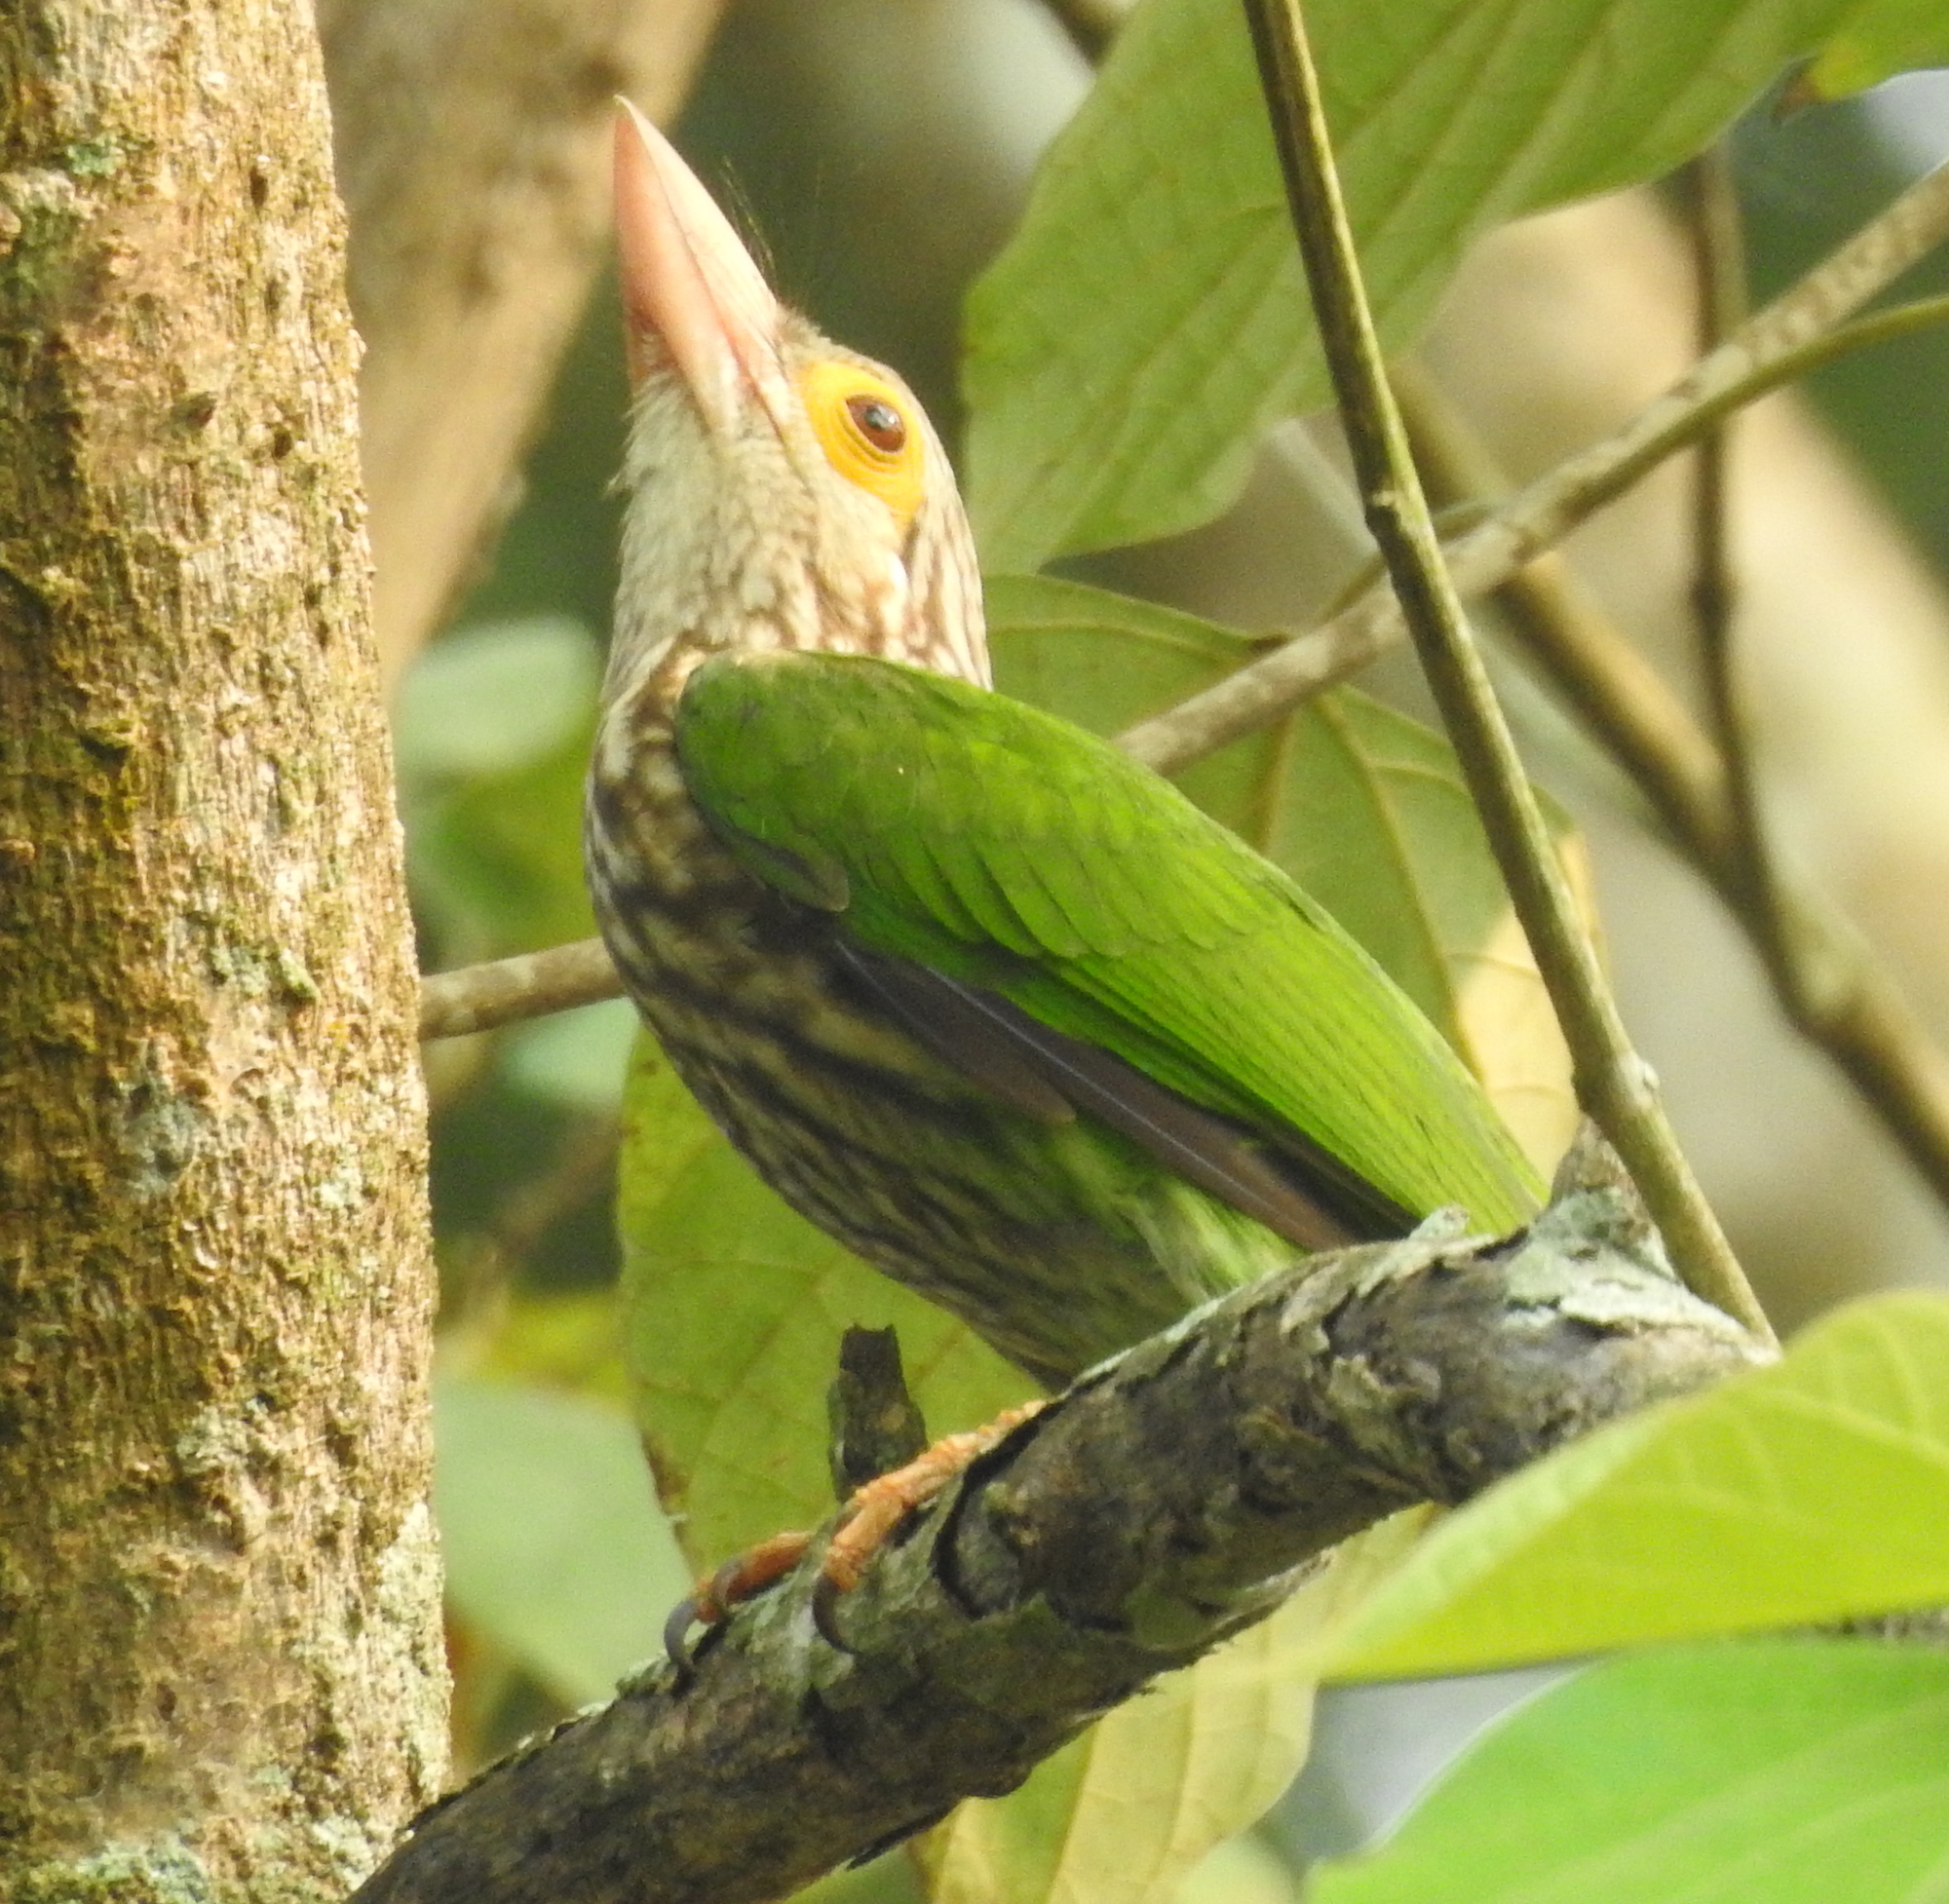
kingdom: Animalia
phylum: Chordata
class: Aves
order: Piciformes
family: Megalaimidae
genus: Psilopogon
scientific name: Psilopogon lineatus
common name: Lineated barbet
